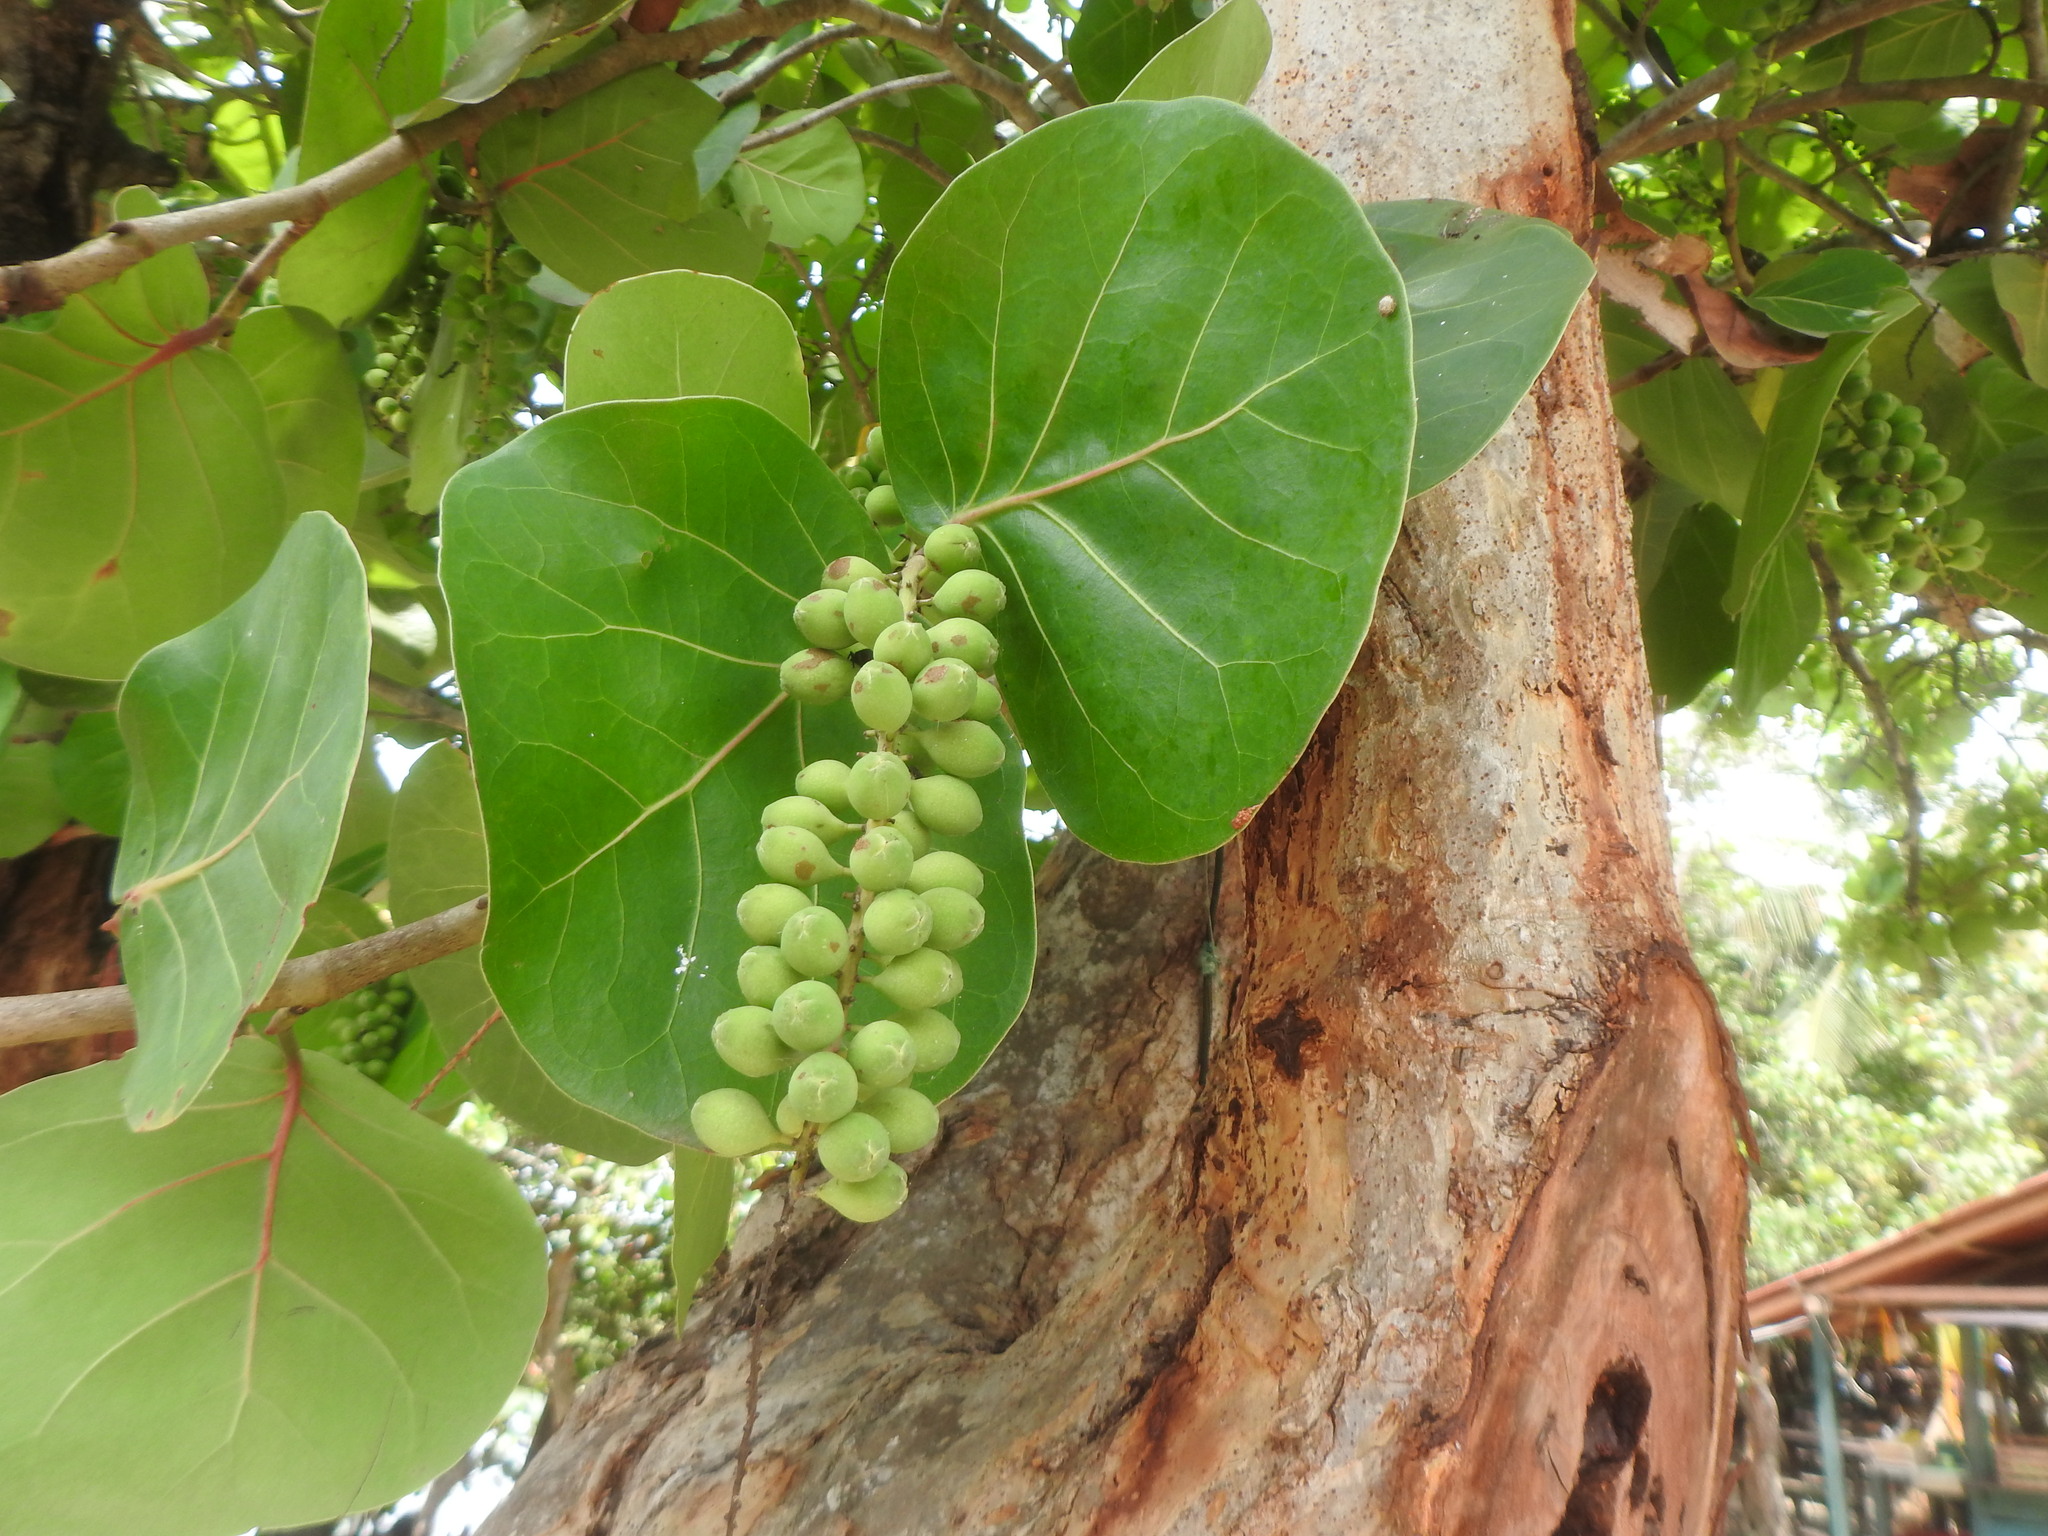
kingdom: Plantae
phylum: Tracheophyta
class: Magnoliopsida
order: Caryophyllales
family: Polygonaceae
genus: Coccoloba
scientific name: Coccoloba uvifera
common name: Seagrape
